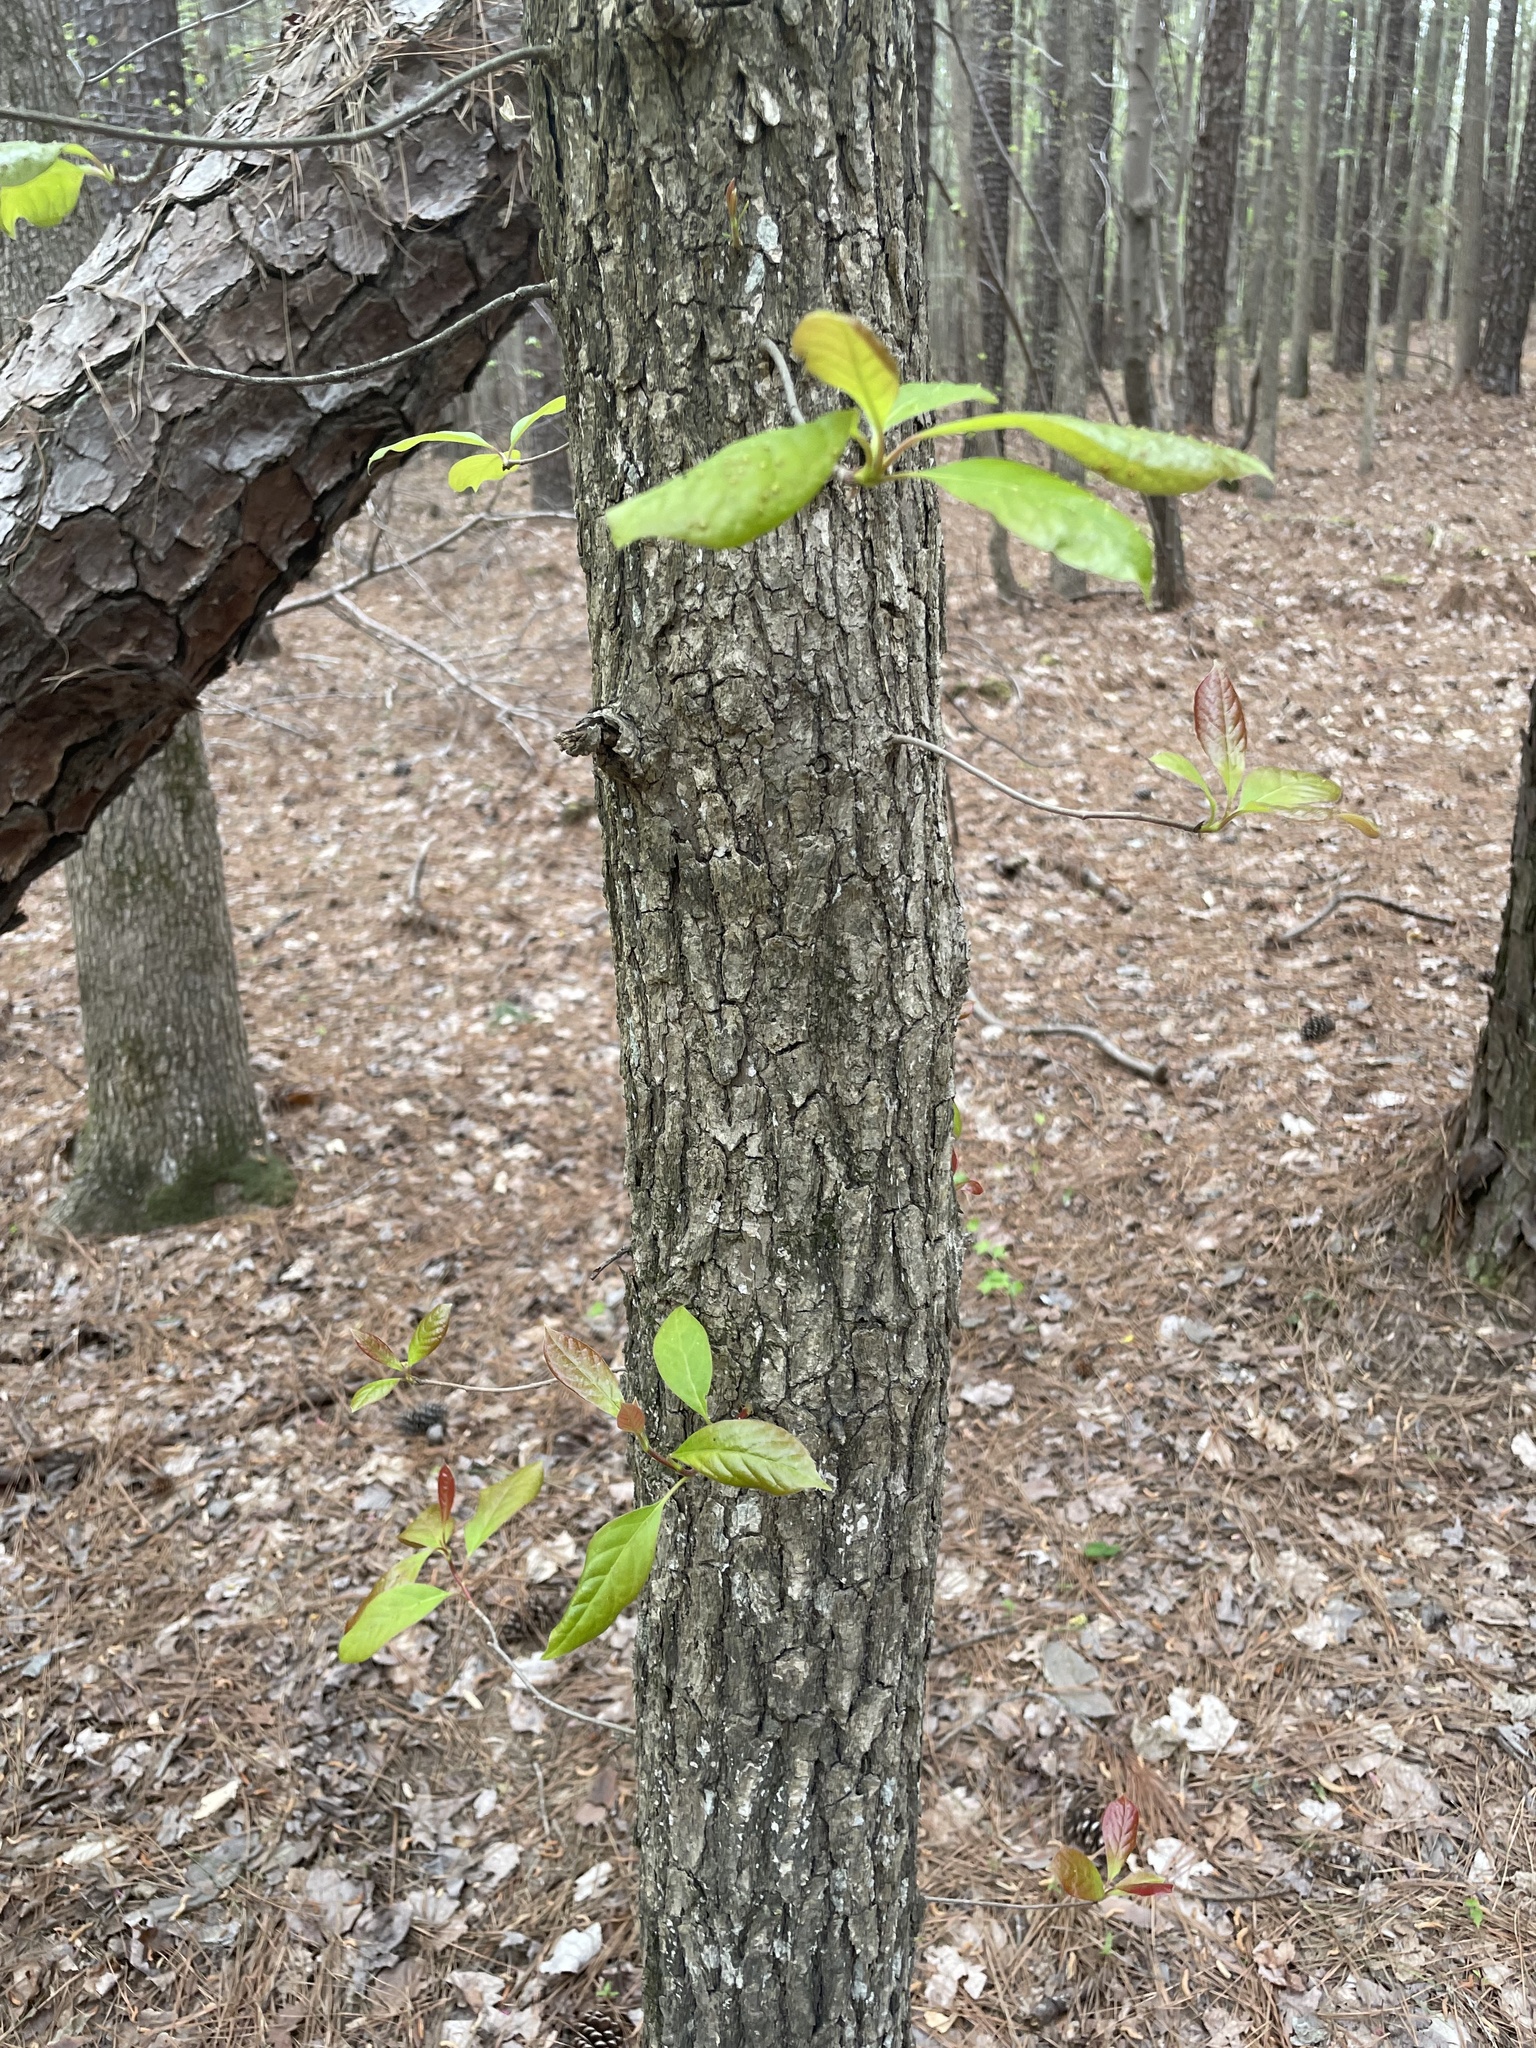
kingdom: Plantae
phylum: Tracheophyta
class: Magnoliopsida
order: Cornales
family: Nyssaceae
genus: Nyssa
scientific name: Nyssa sylvatica
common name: Black tupelo
